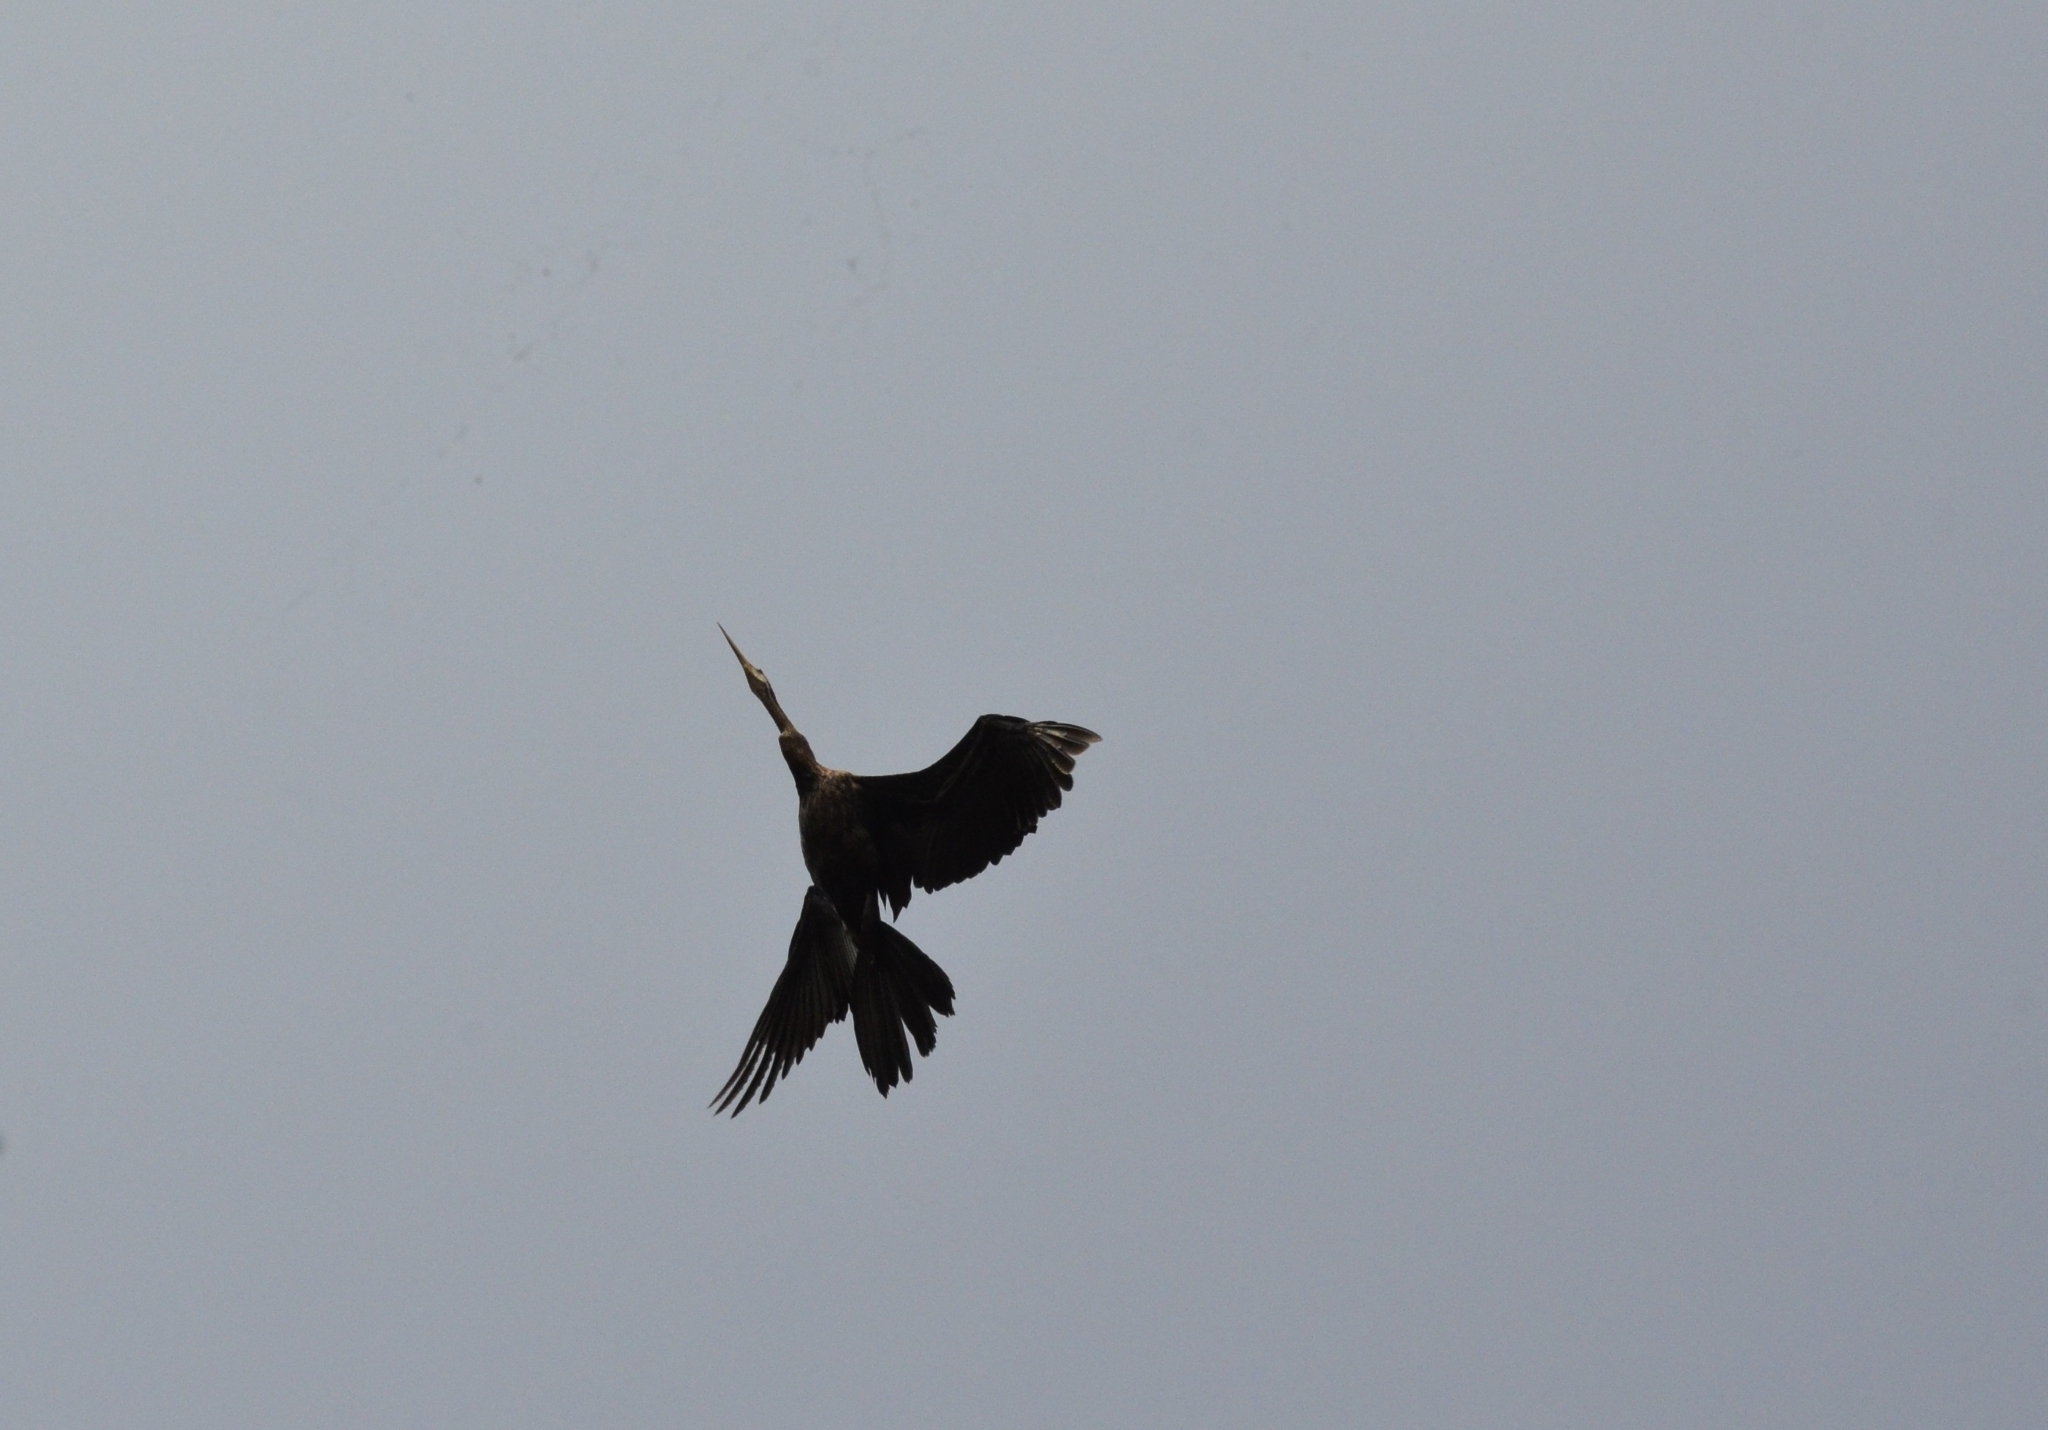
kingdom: Animalia
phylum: Chordata
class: Aves
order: Suliformes
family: Anhingidae
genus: Anhinga
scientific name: Anhinga melanogaster
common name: Oriental darter
